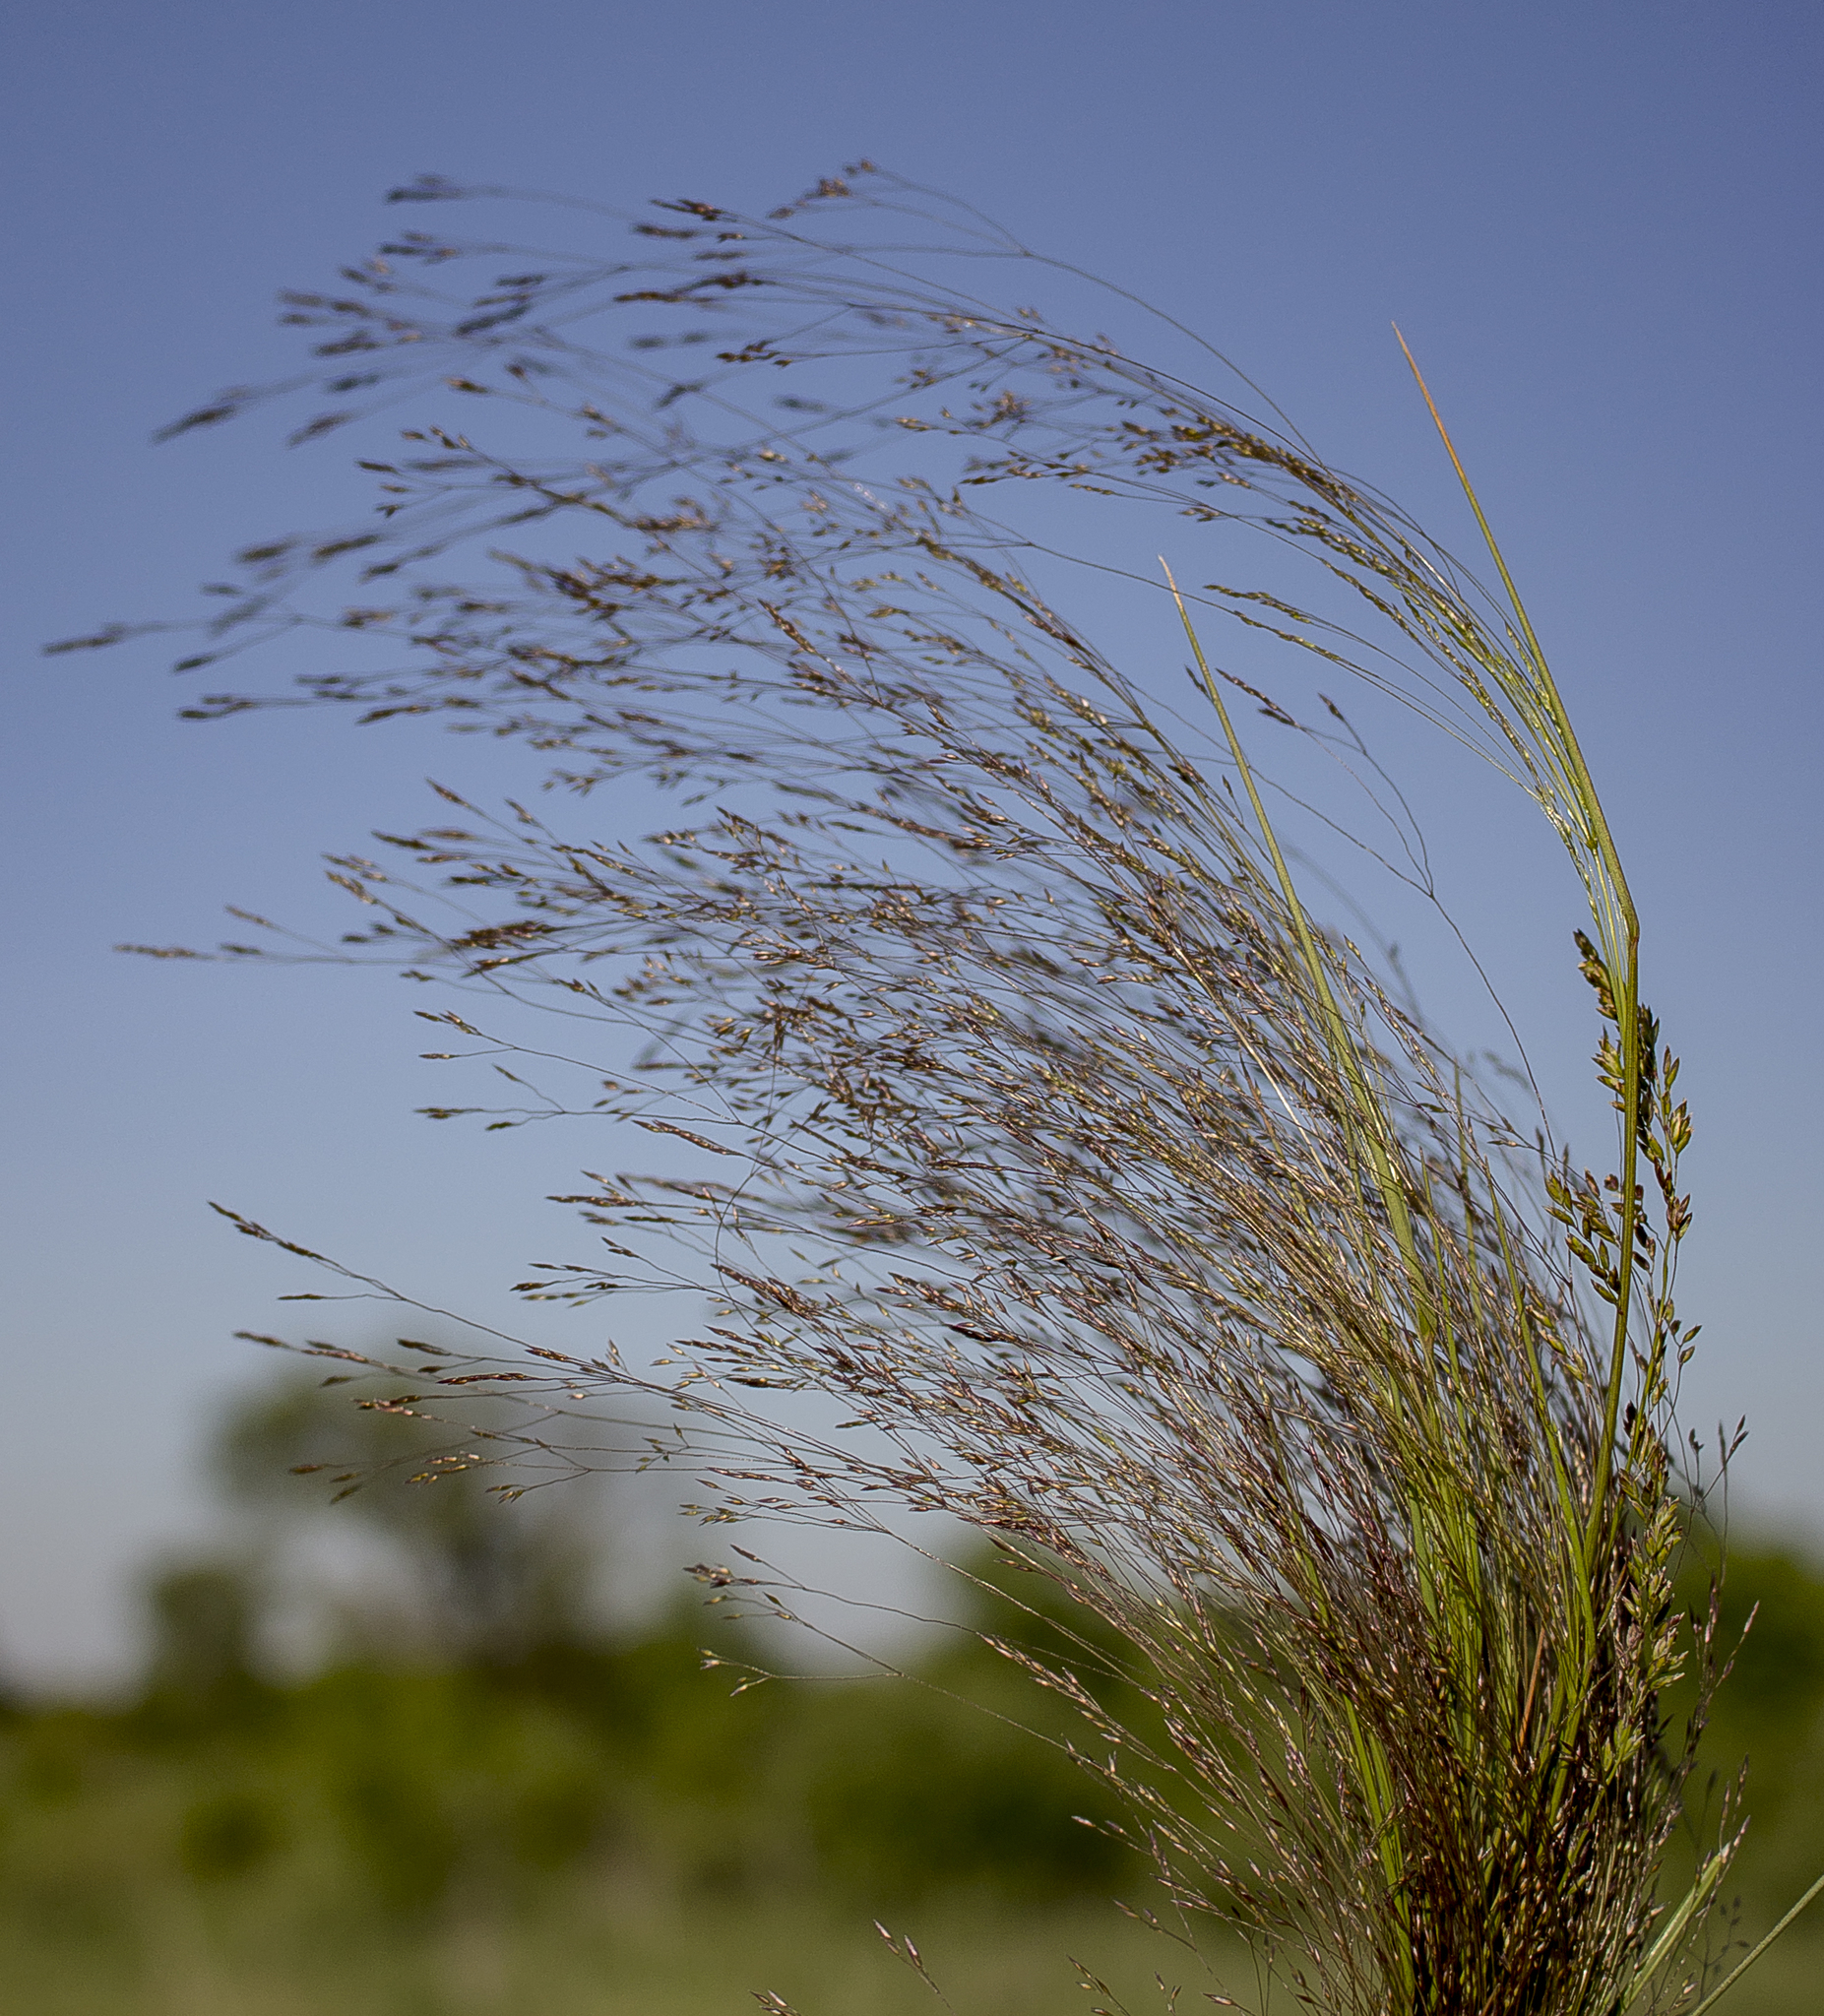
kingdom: Plantae
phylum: Tracheophyta
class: Liliopsida
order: Poales
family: Poaceae
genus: Agrostis
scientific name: Agrostis hyemalis
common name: Small bent
